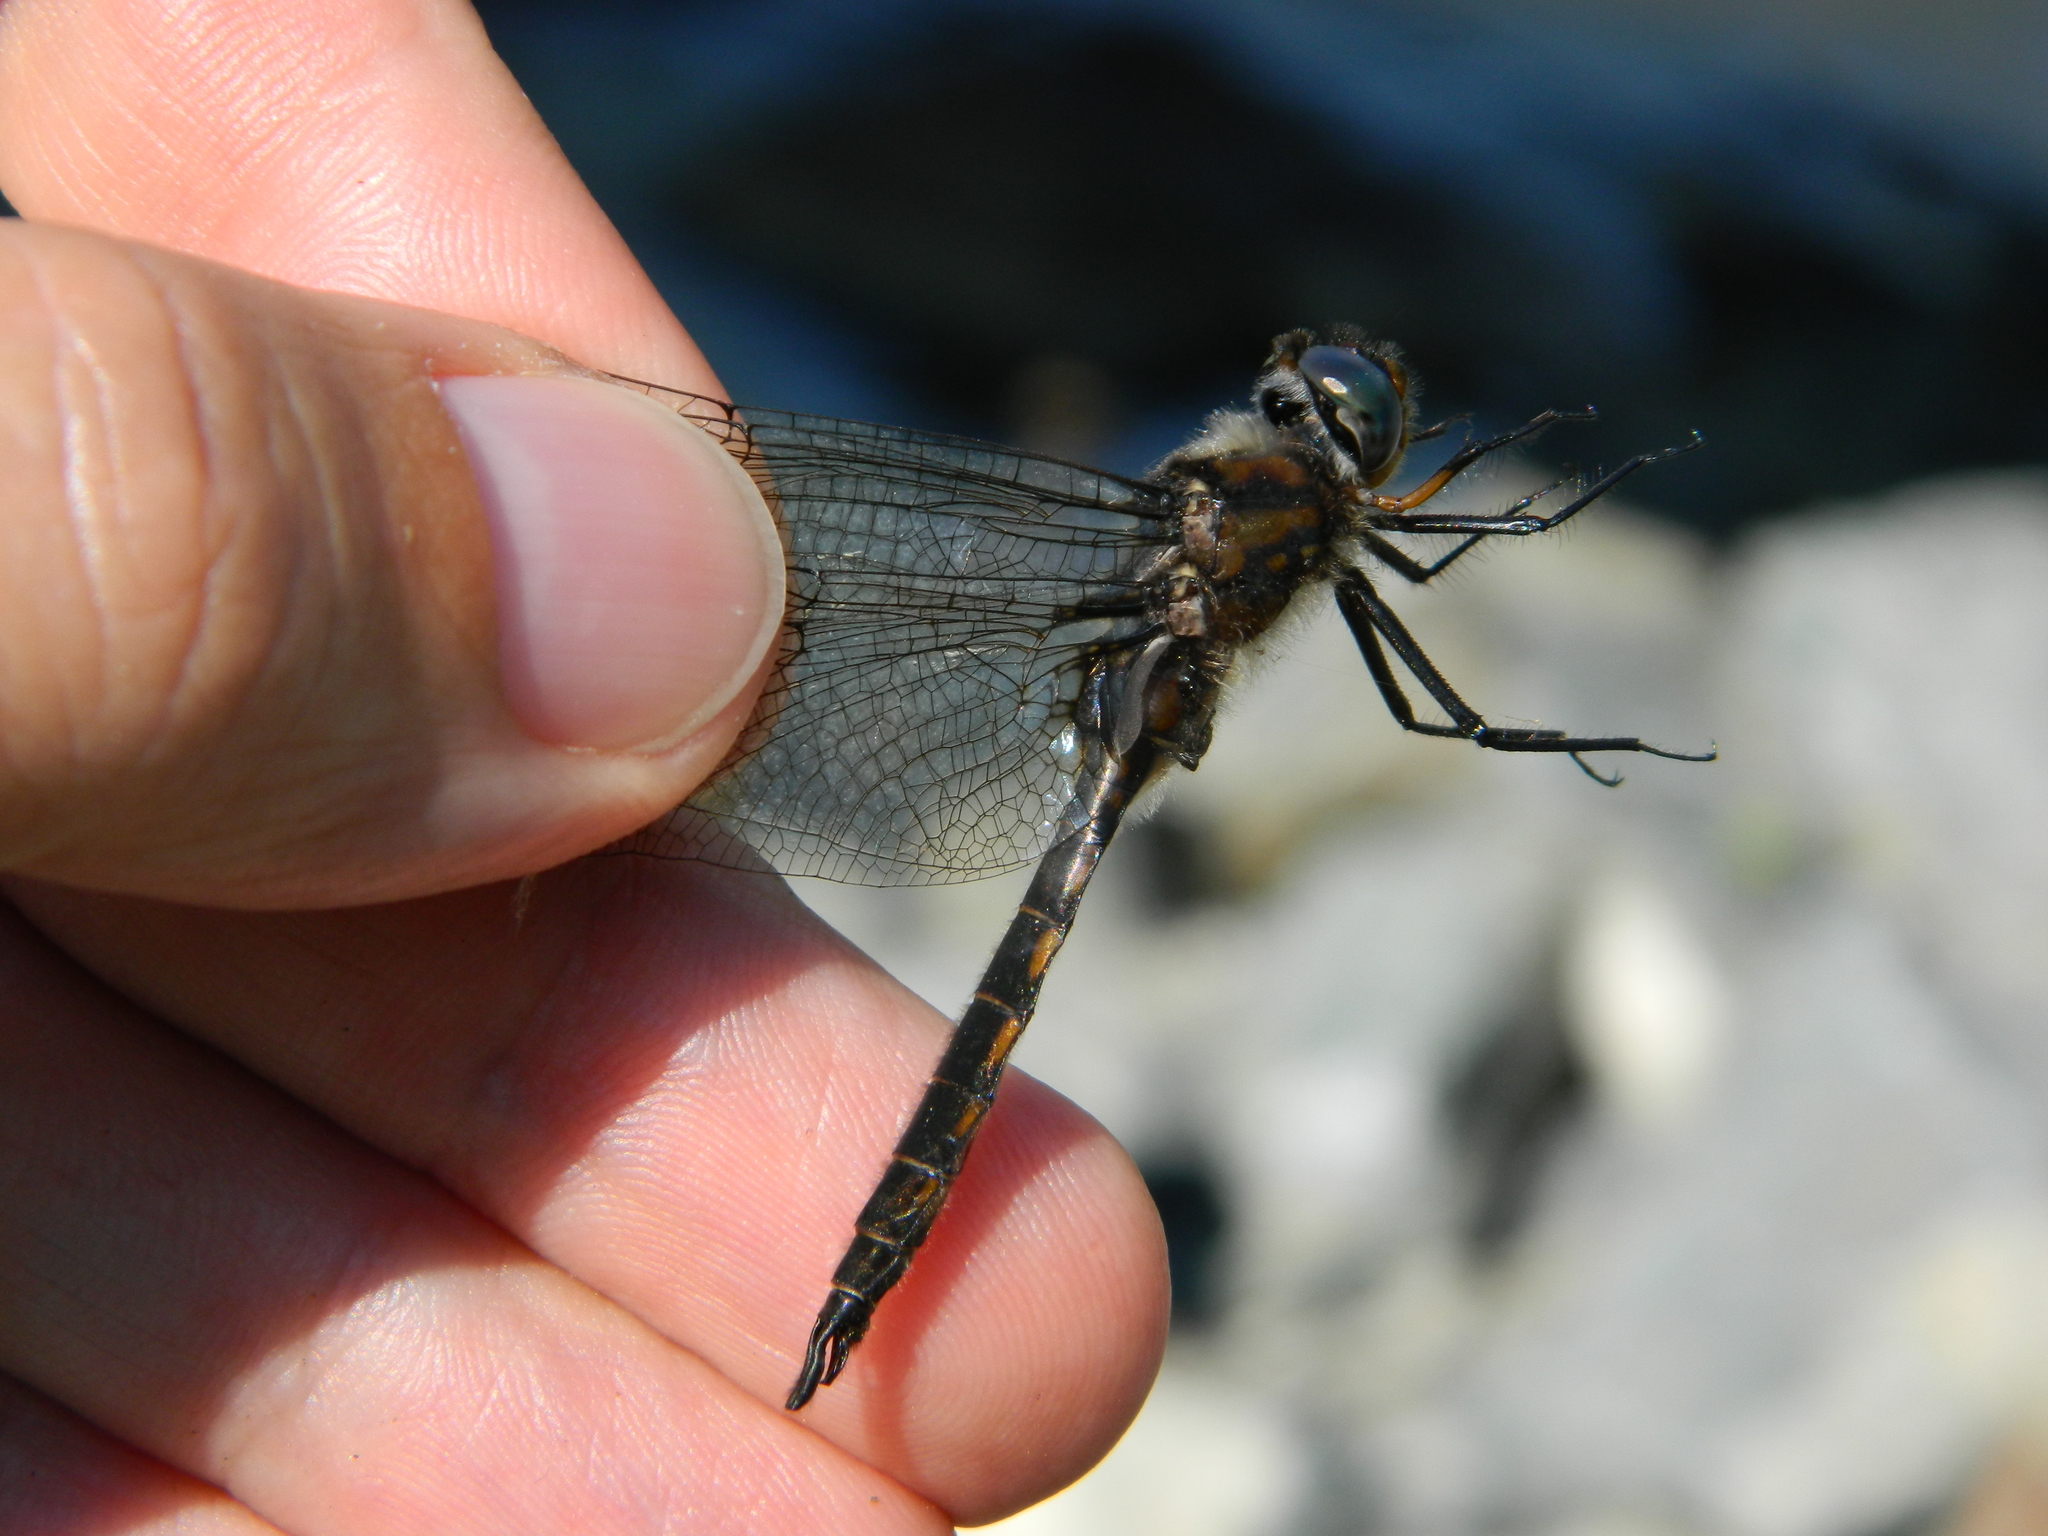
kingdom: Animalia
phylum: Arthropoda
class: Insecta
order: Odonata
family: Corduliidae
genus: Epitheca
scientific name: Epitheca spinigera
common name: Spiny baskettail
